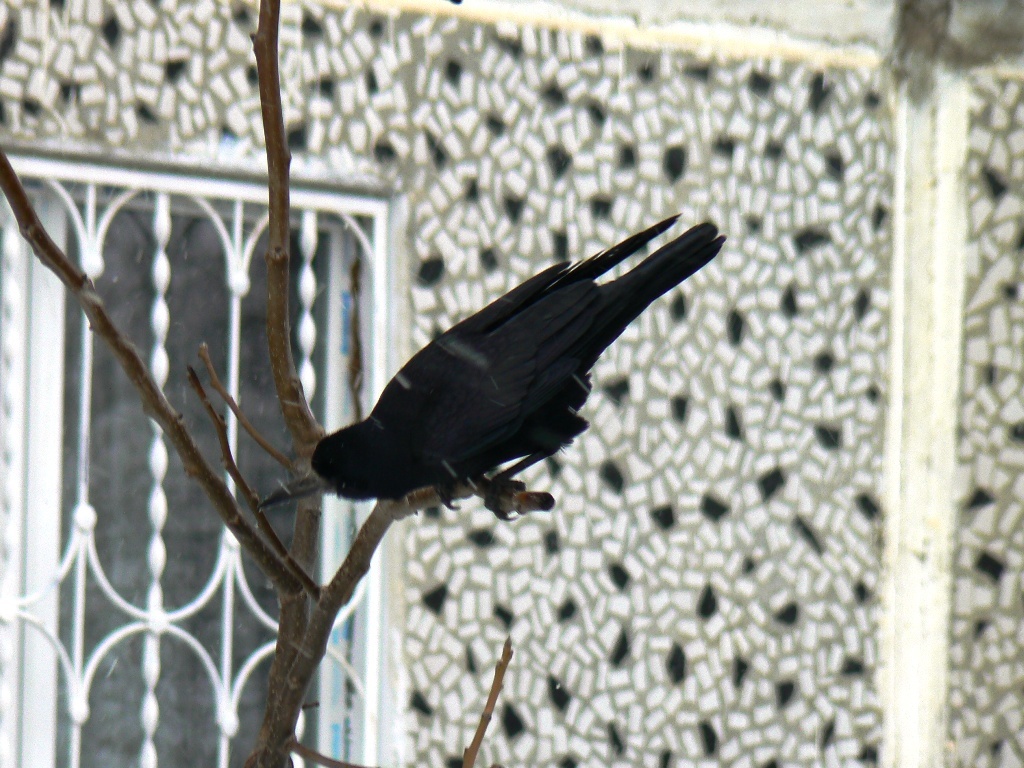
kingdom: Animalia
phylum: Chordata
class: Aves
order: Passeriformes
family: Corvidae
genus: Corvus
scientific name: Corvus frugilegus
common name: Rook
